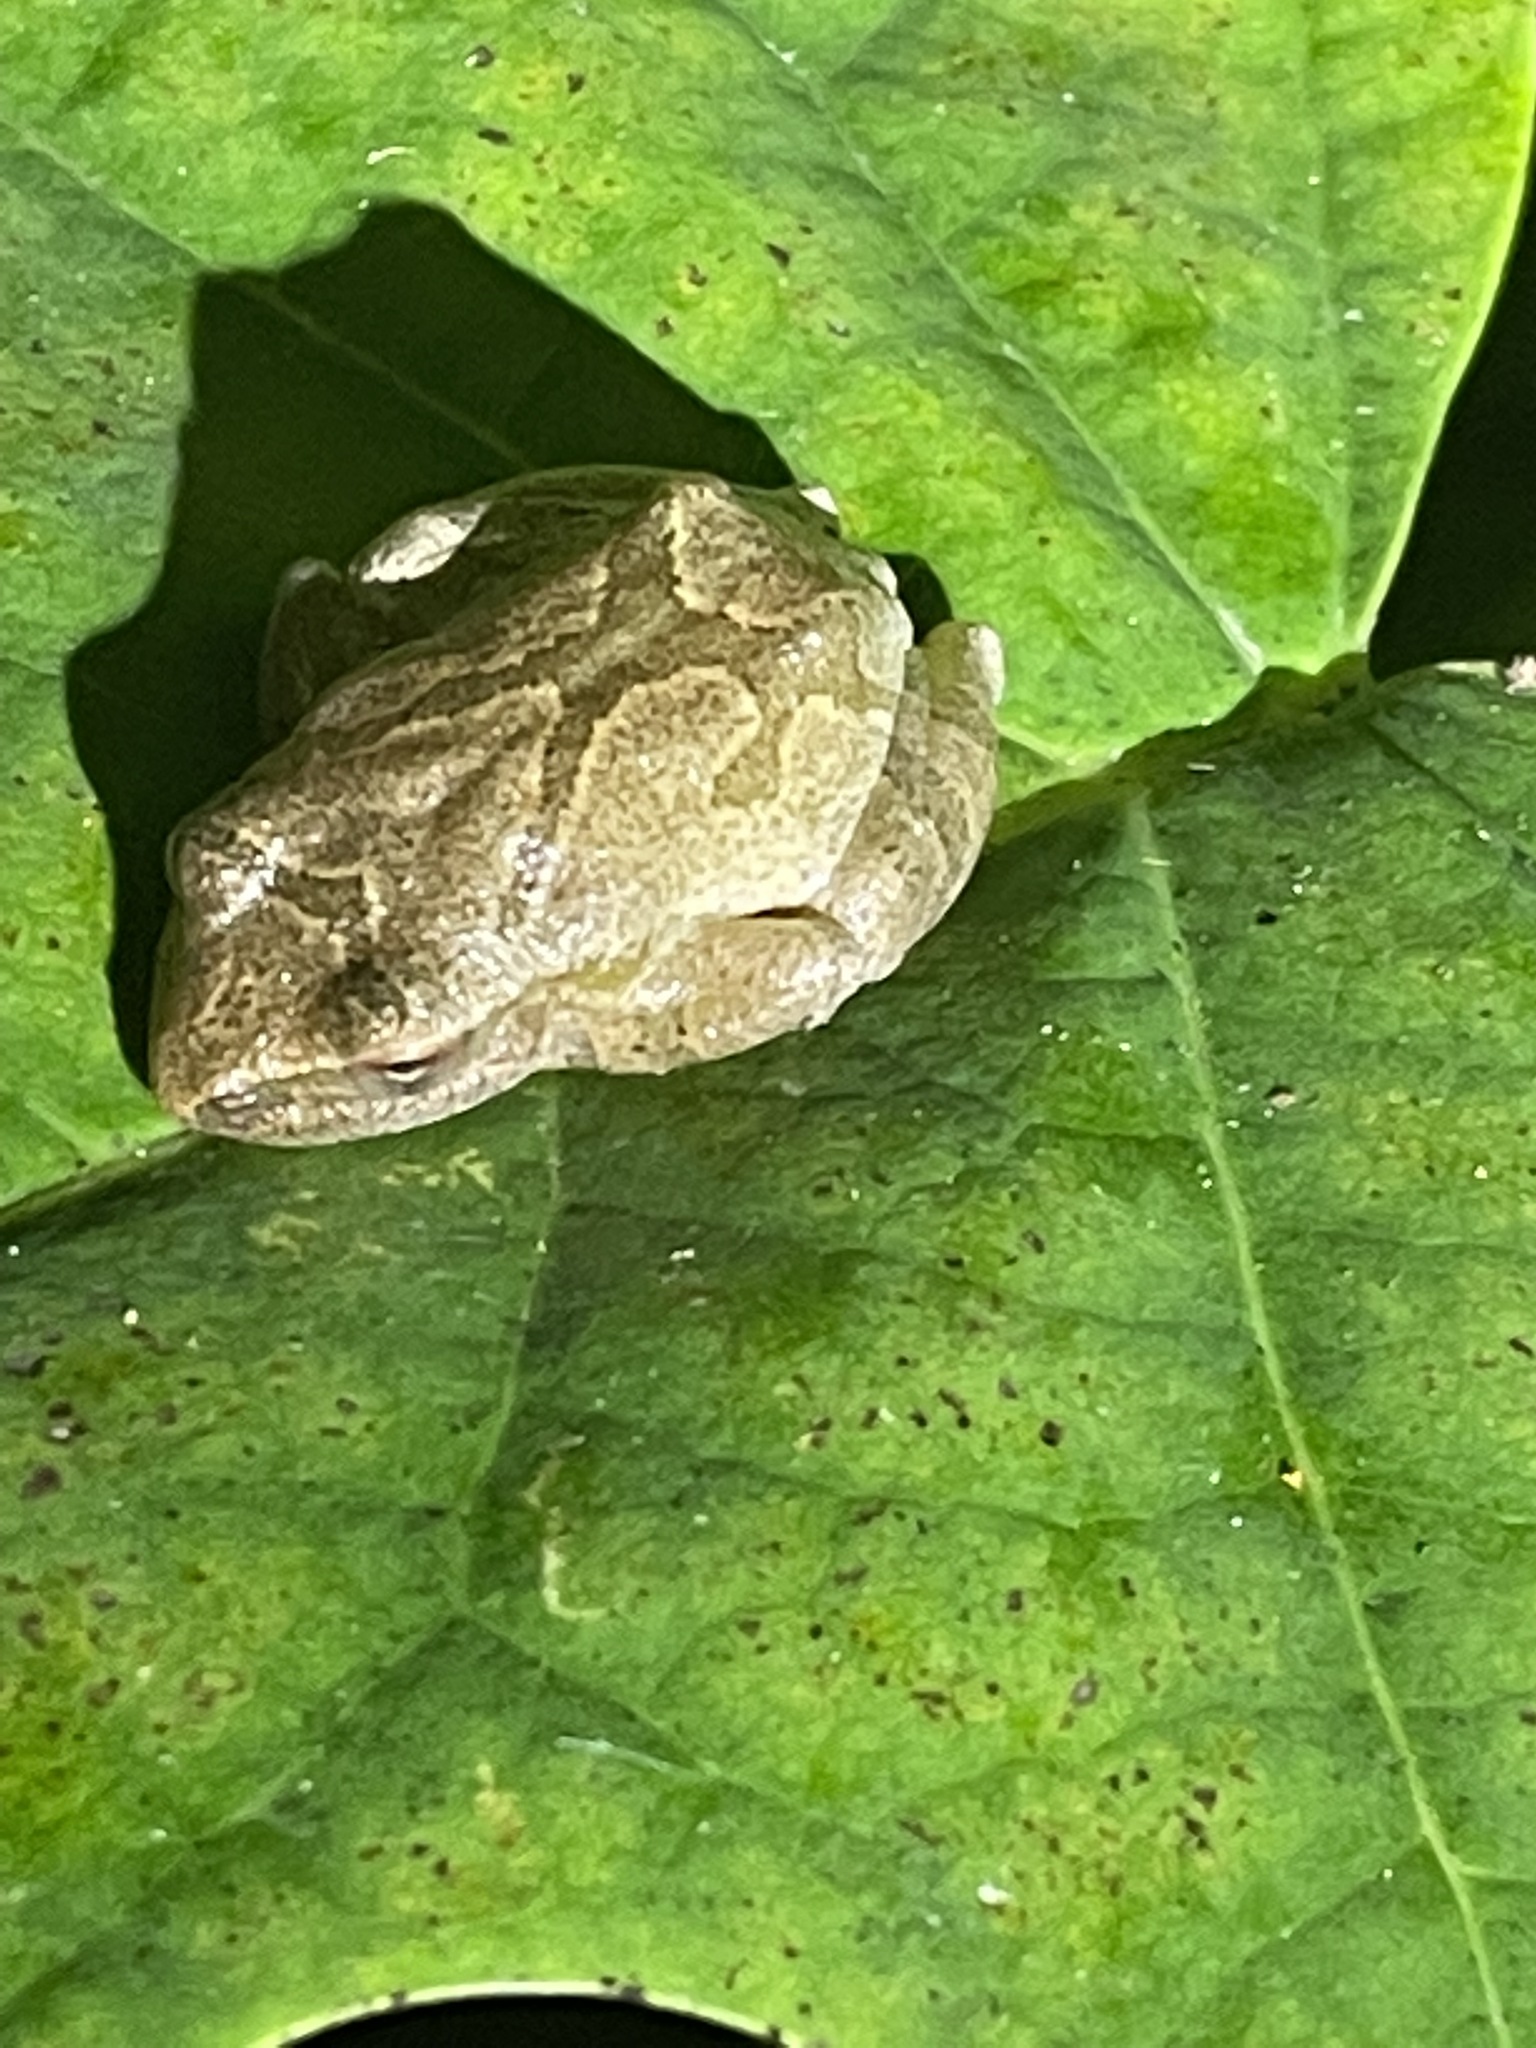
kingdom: Animalia
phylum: Chordata
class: Amphibia
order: Anura
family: Hylidae
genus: Pseudacris
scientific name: Pseudacris crucifer
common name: Spring peeper
